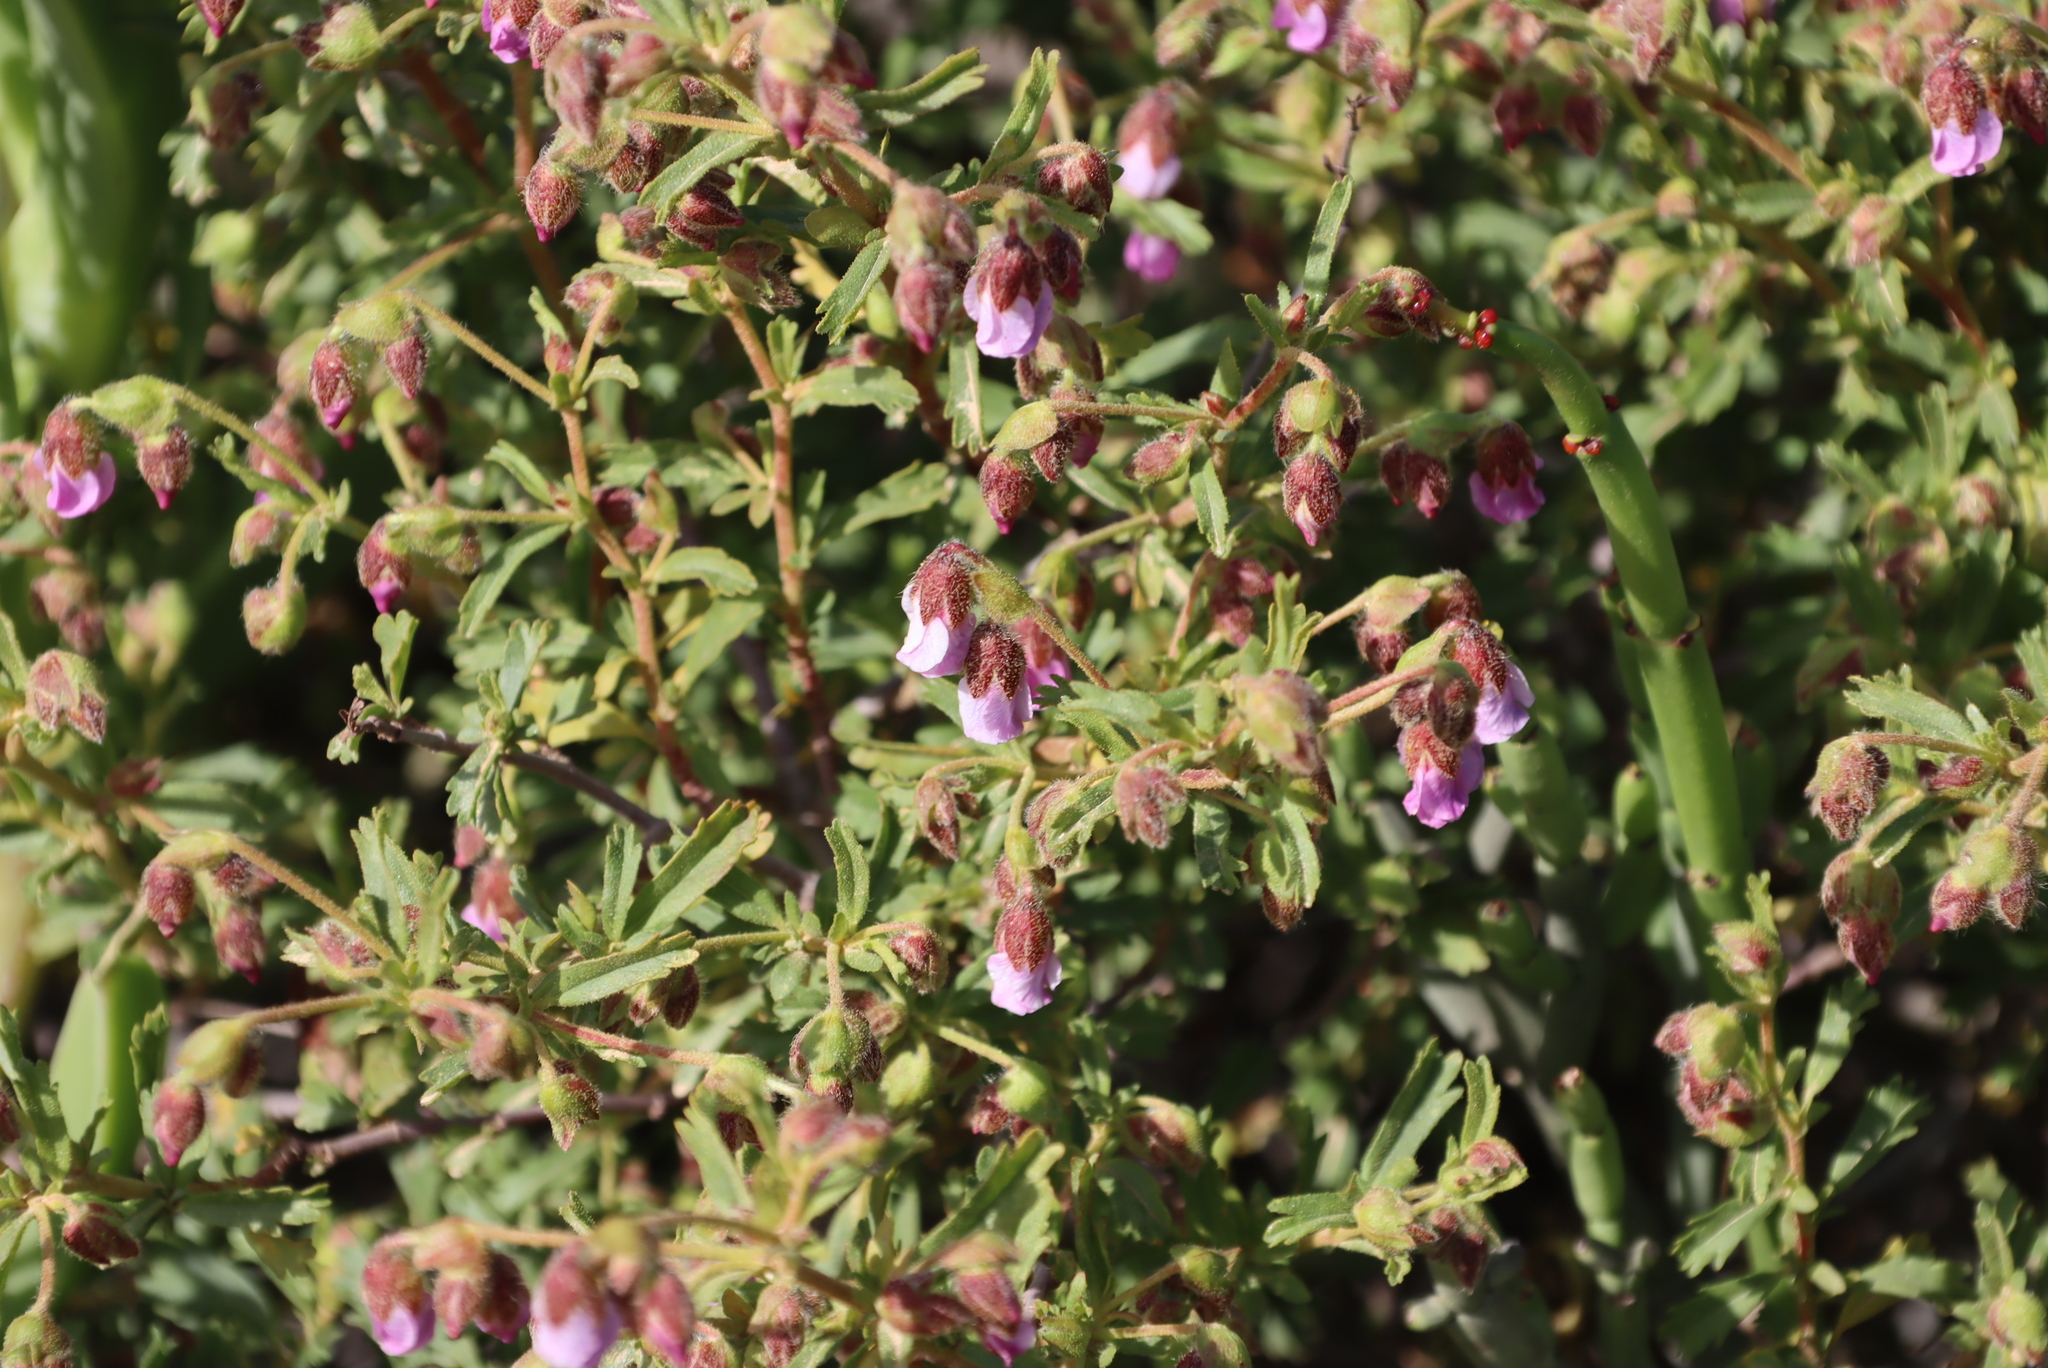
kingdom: Plantae
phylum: Tracheophyta
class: Magnoliopsida
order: Malvales
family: Malvaceae
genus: Hermannia
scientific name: Hermannia heterophylla
